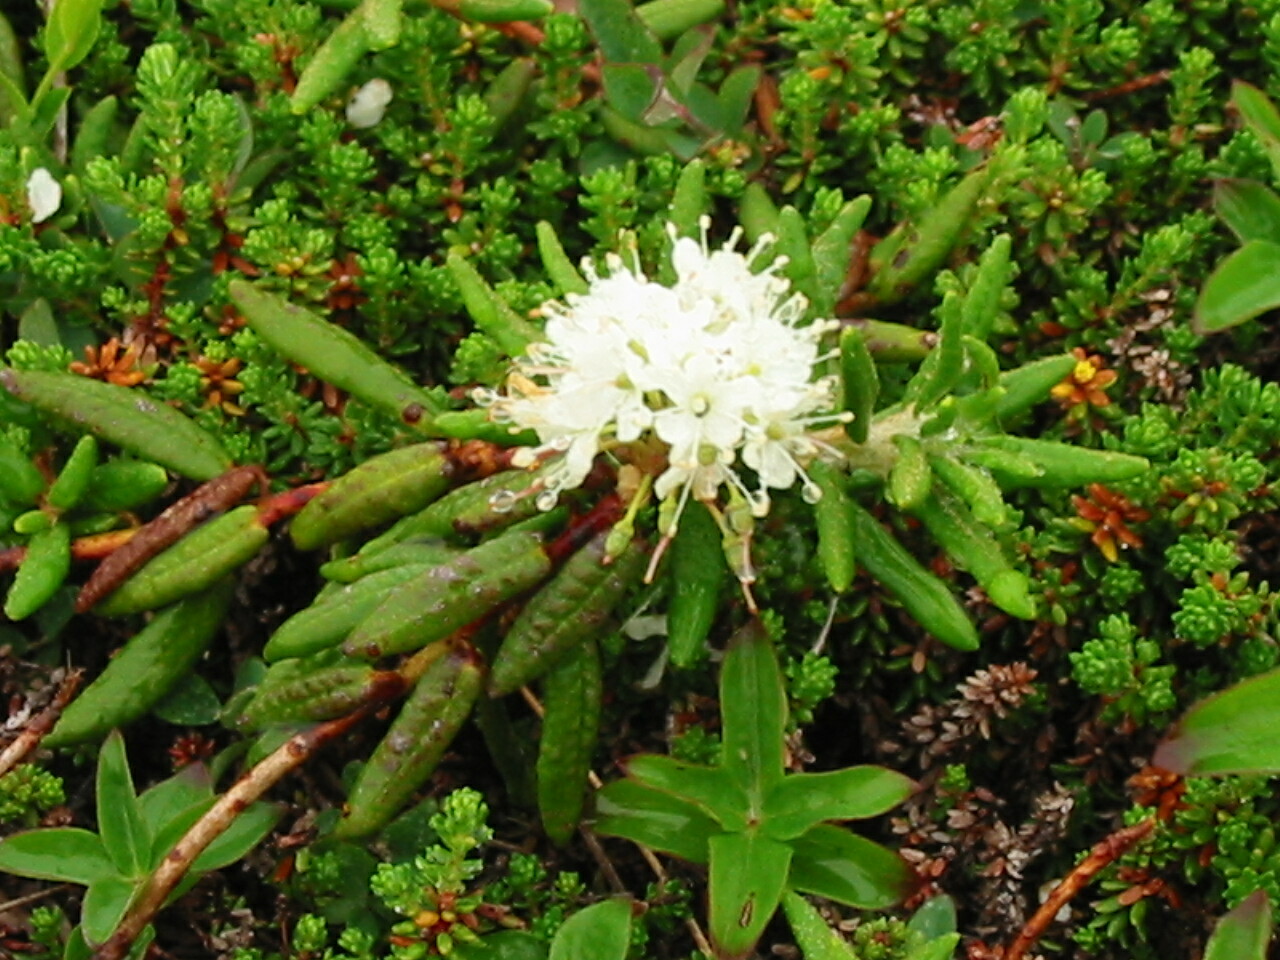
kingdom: Plantae
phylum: Tracheophyta
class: Magnoliopsida
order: Ericales
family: Ericaceae
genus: Rhododendron
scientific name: Rhododendron groenlandicum
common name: Bog labrador tea
